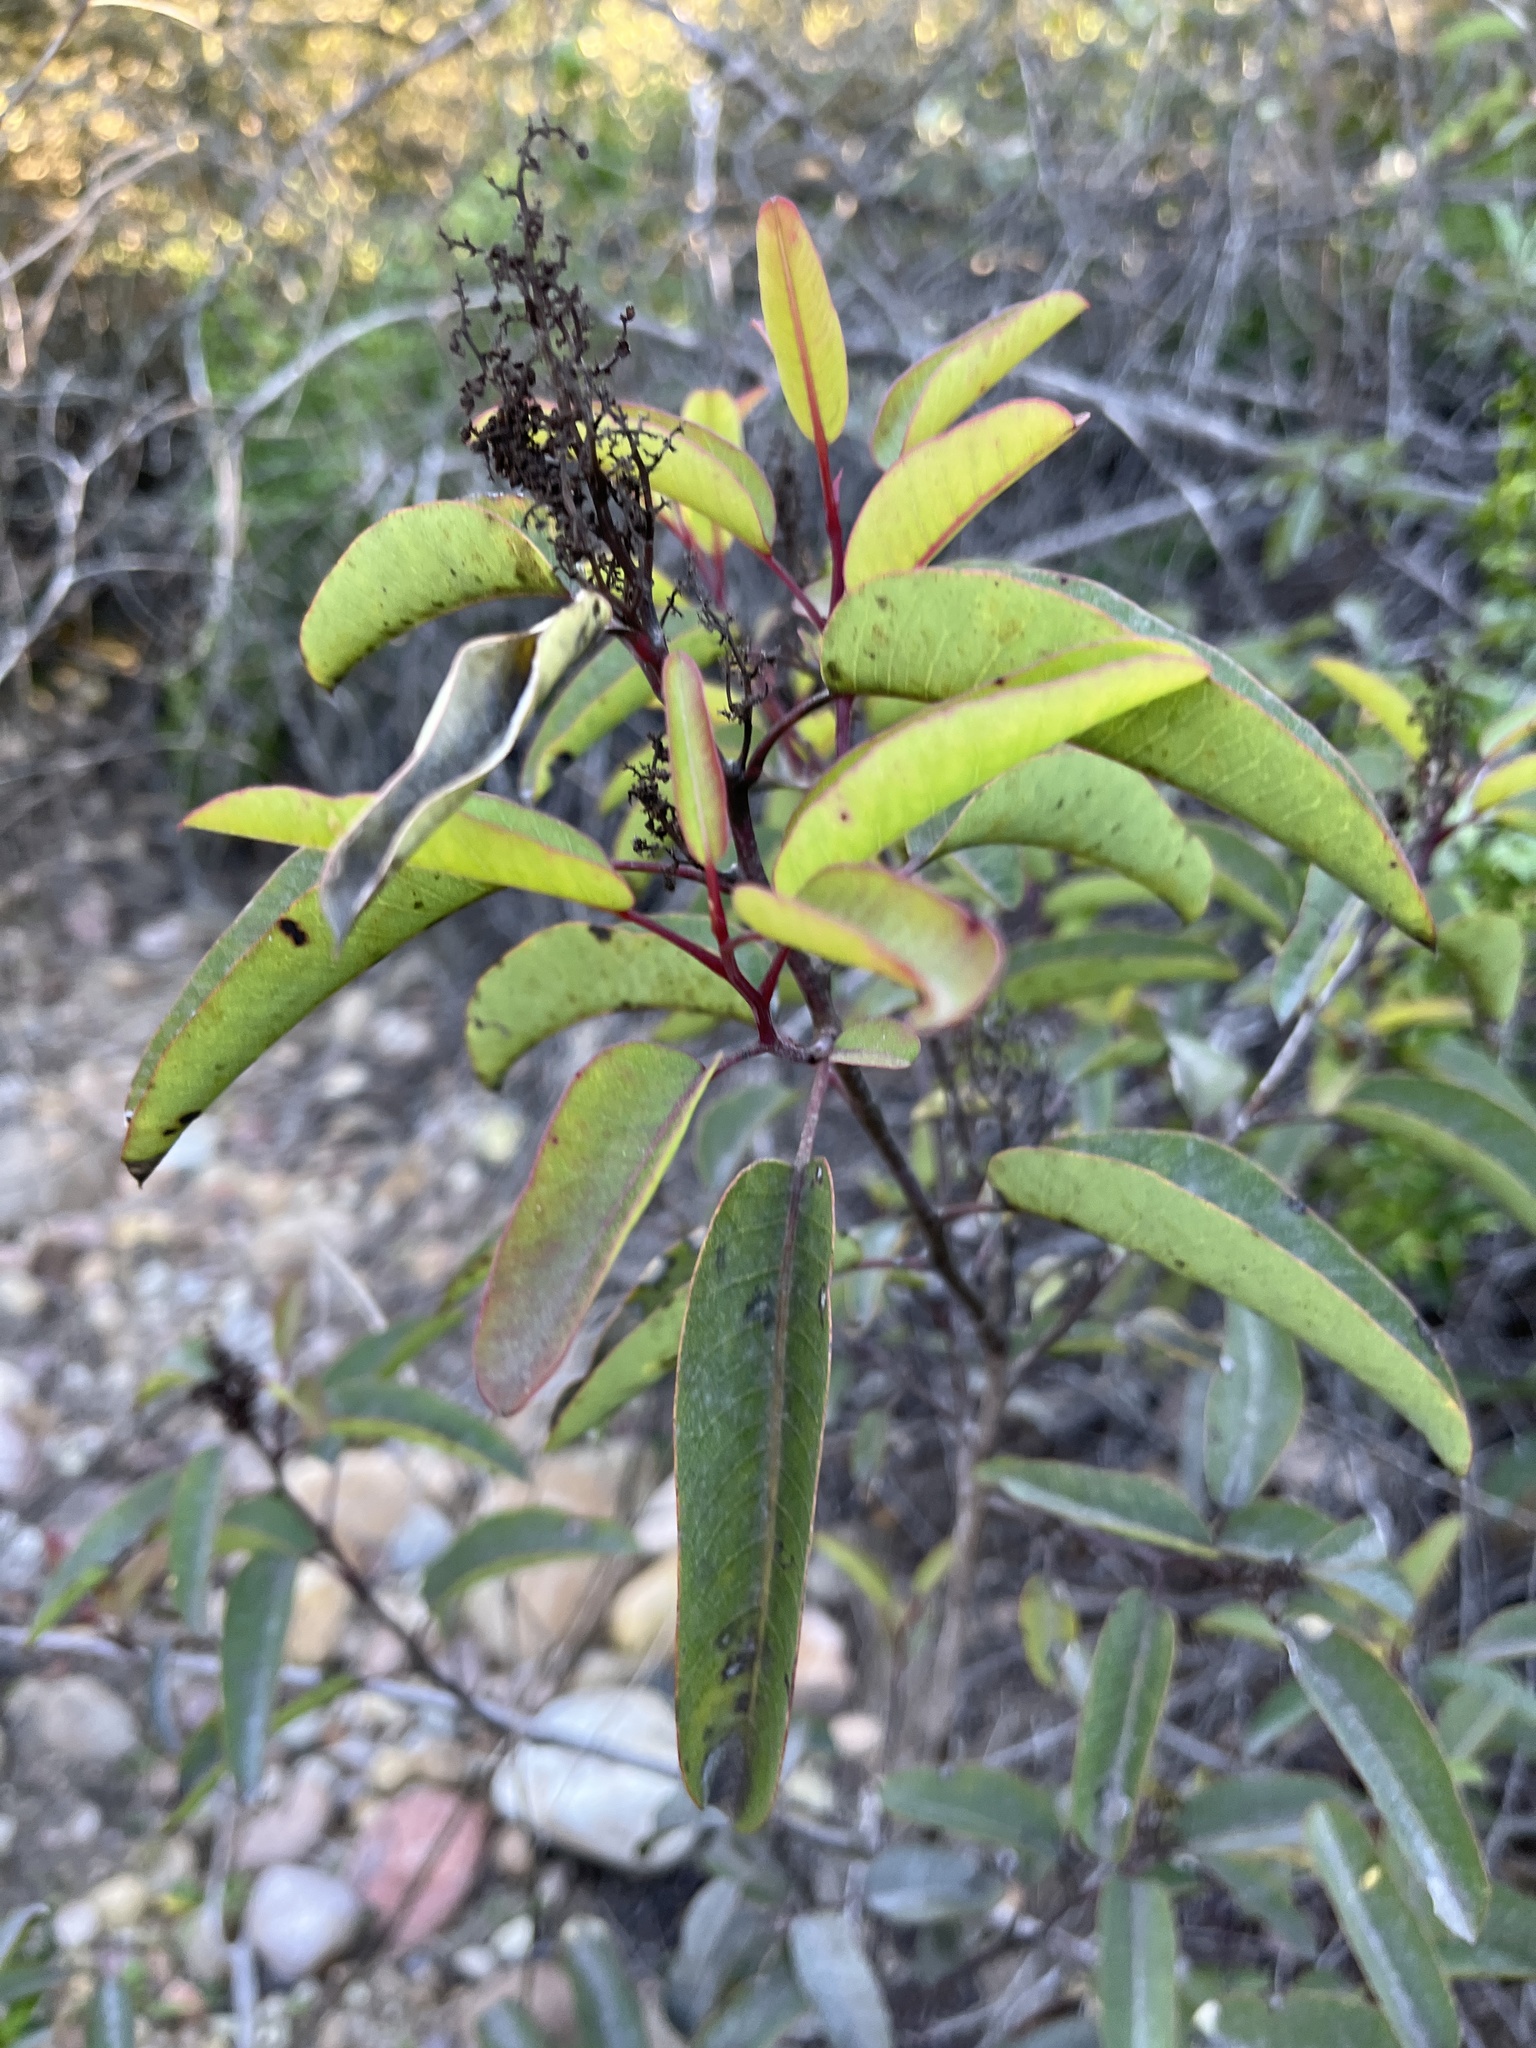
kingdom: Plantae
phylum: Tracheophyta
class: Magnoliopsida
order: Sapindales
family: Anacardiaceae
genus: Malosma
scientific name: Malosma laurina
